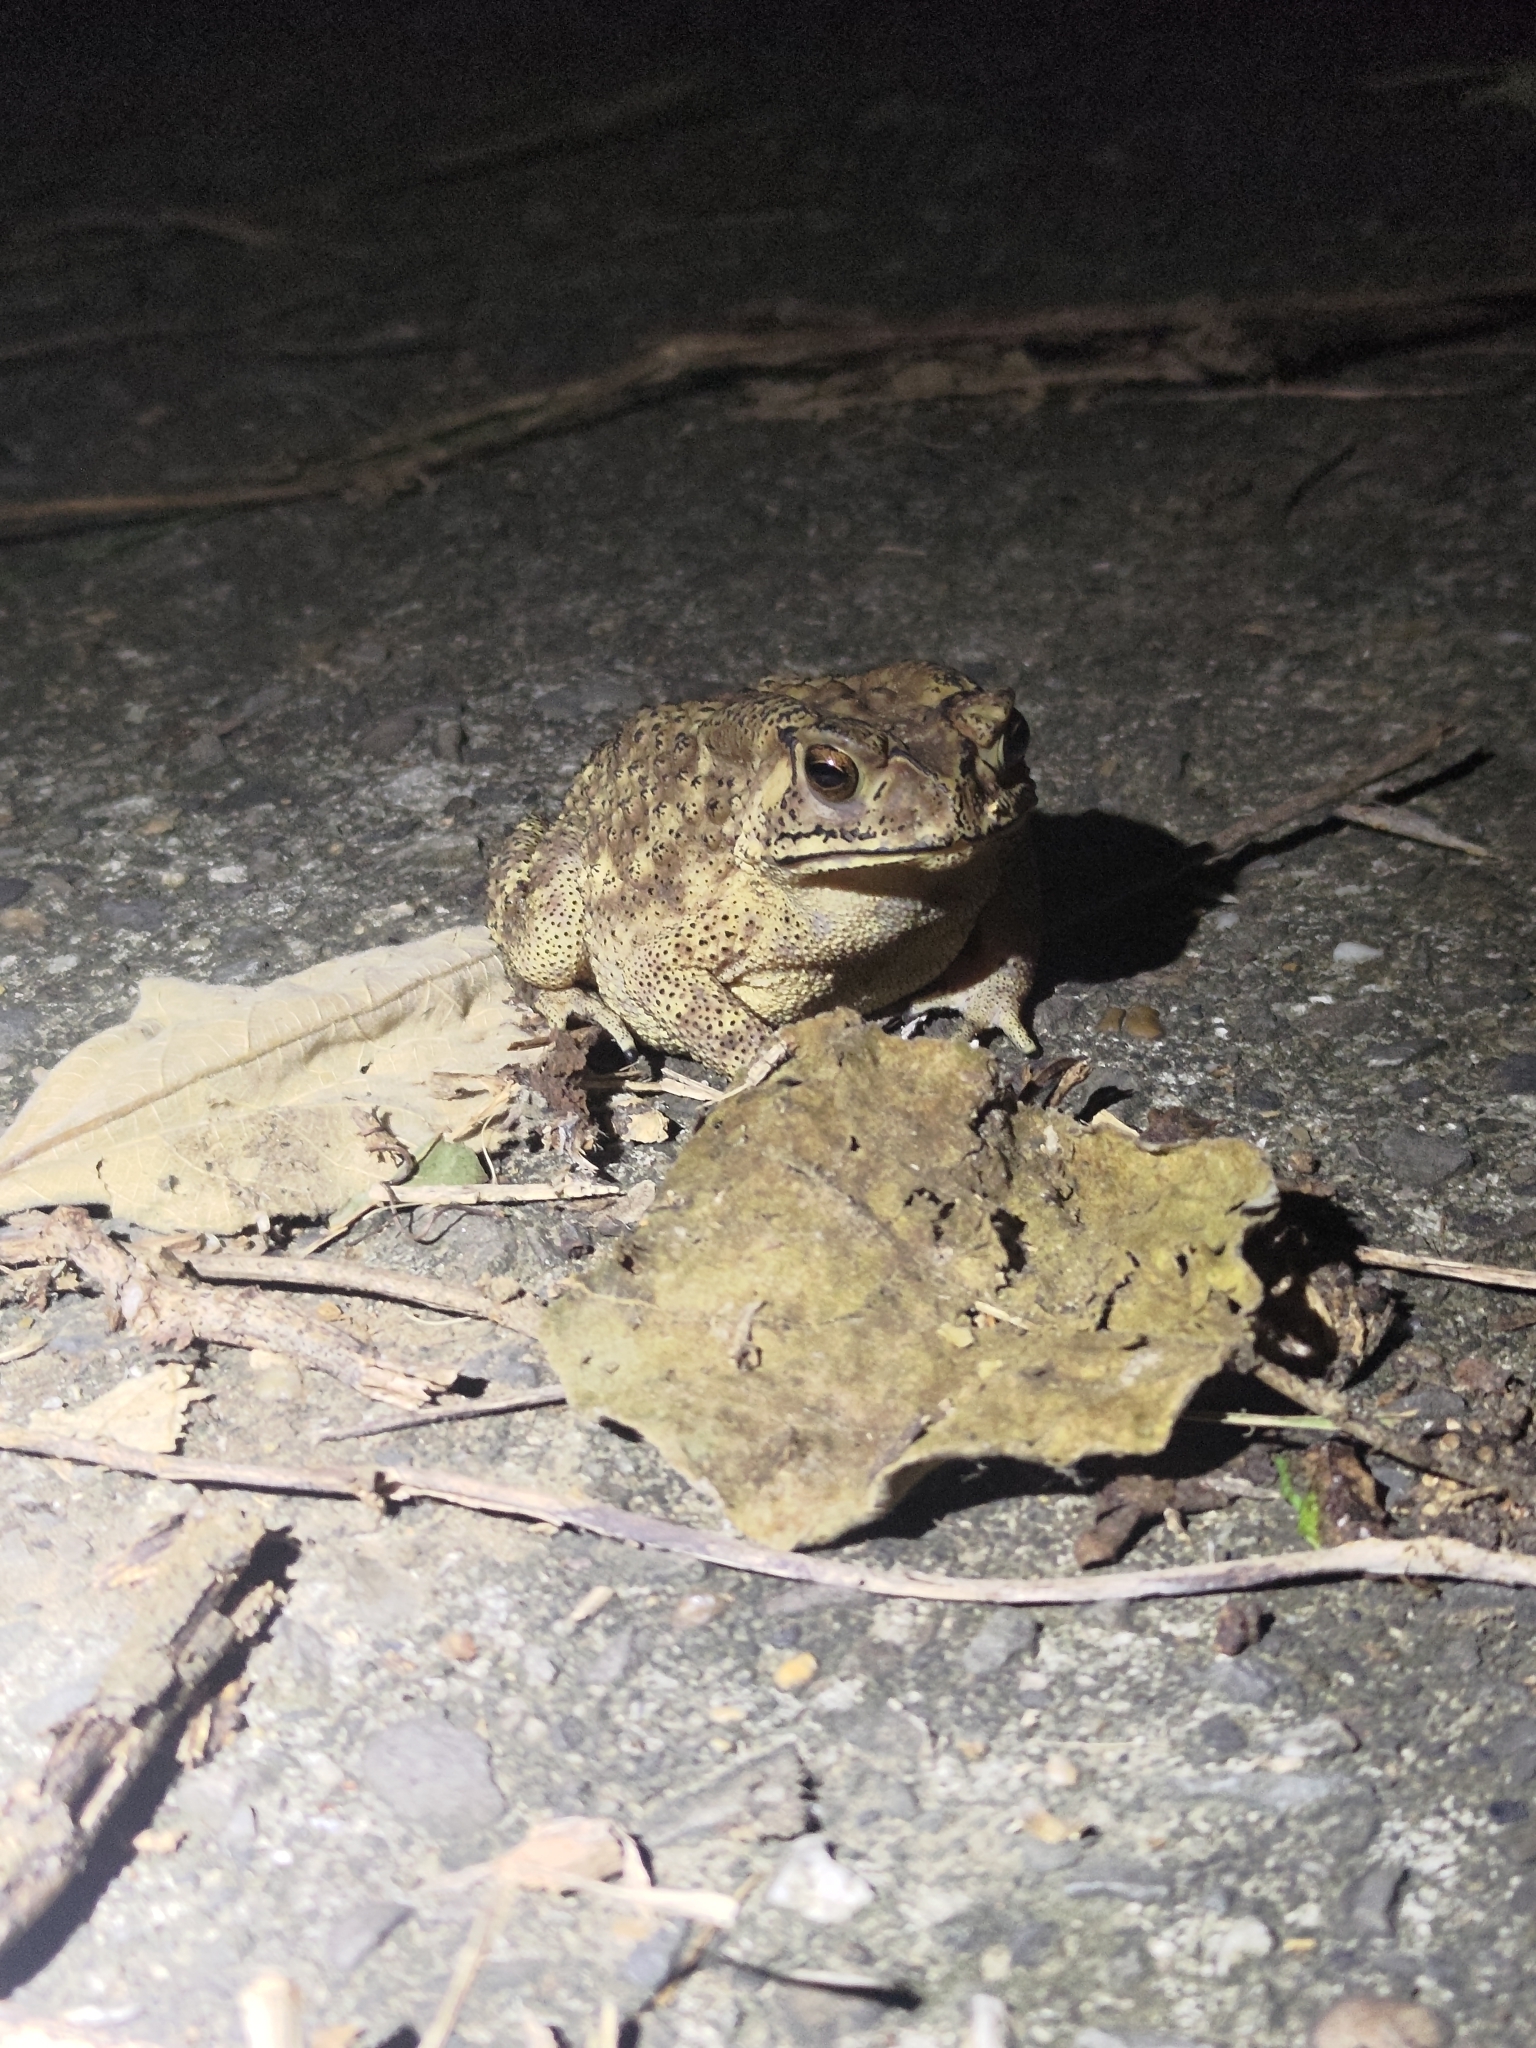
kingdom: Animalia
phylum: Chordata
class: Amphibia
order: Anura
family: Bufonidae
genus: Duttaphrynus
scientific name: Duttaphrynus melanostictus
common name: Common sunda toad
